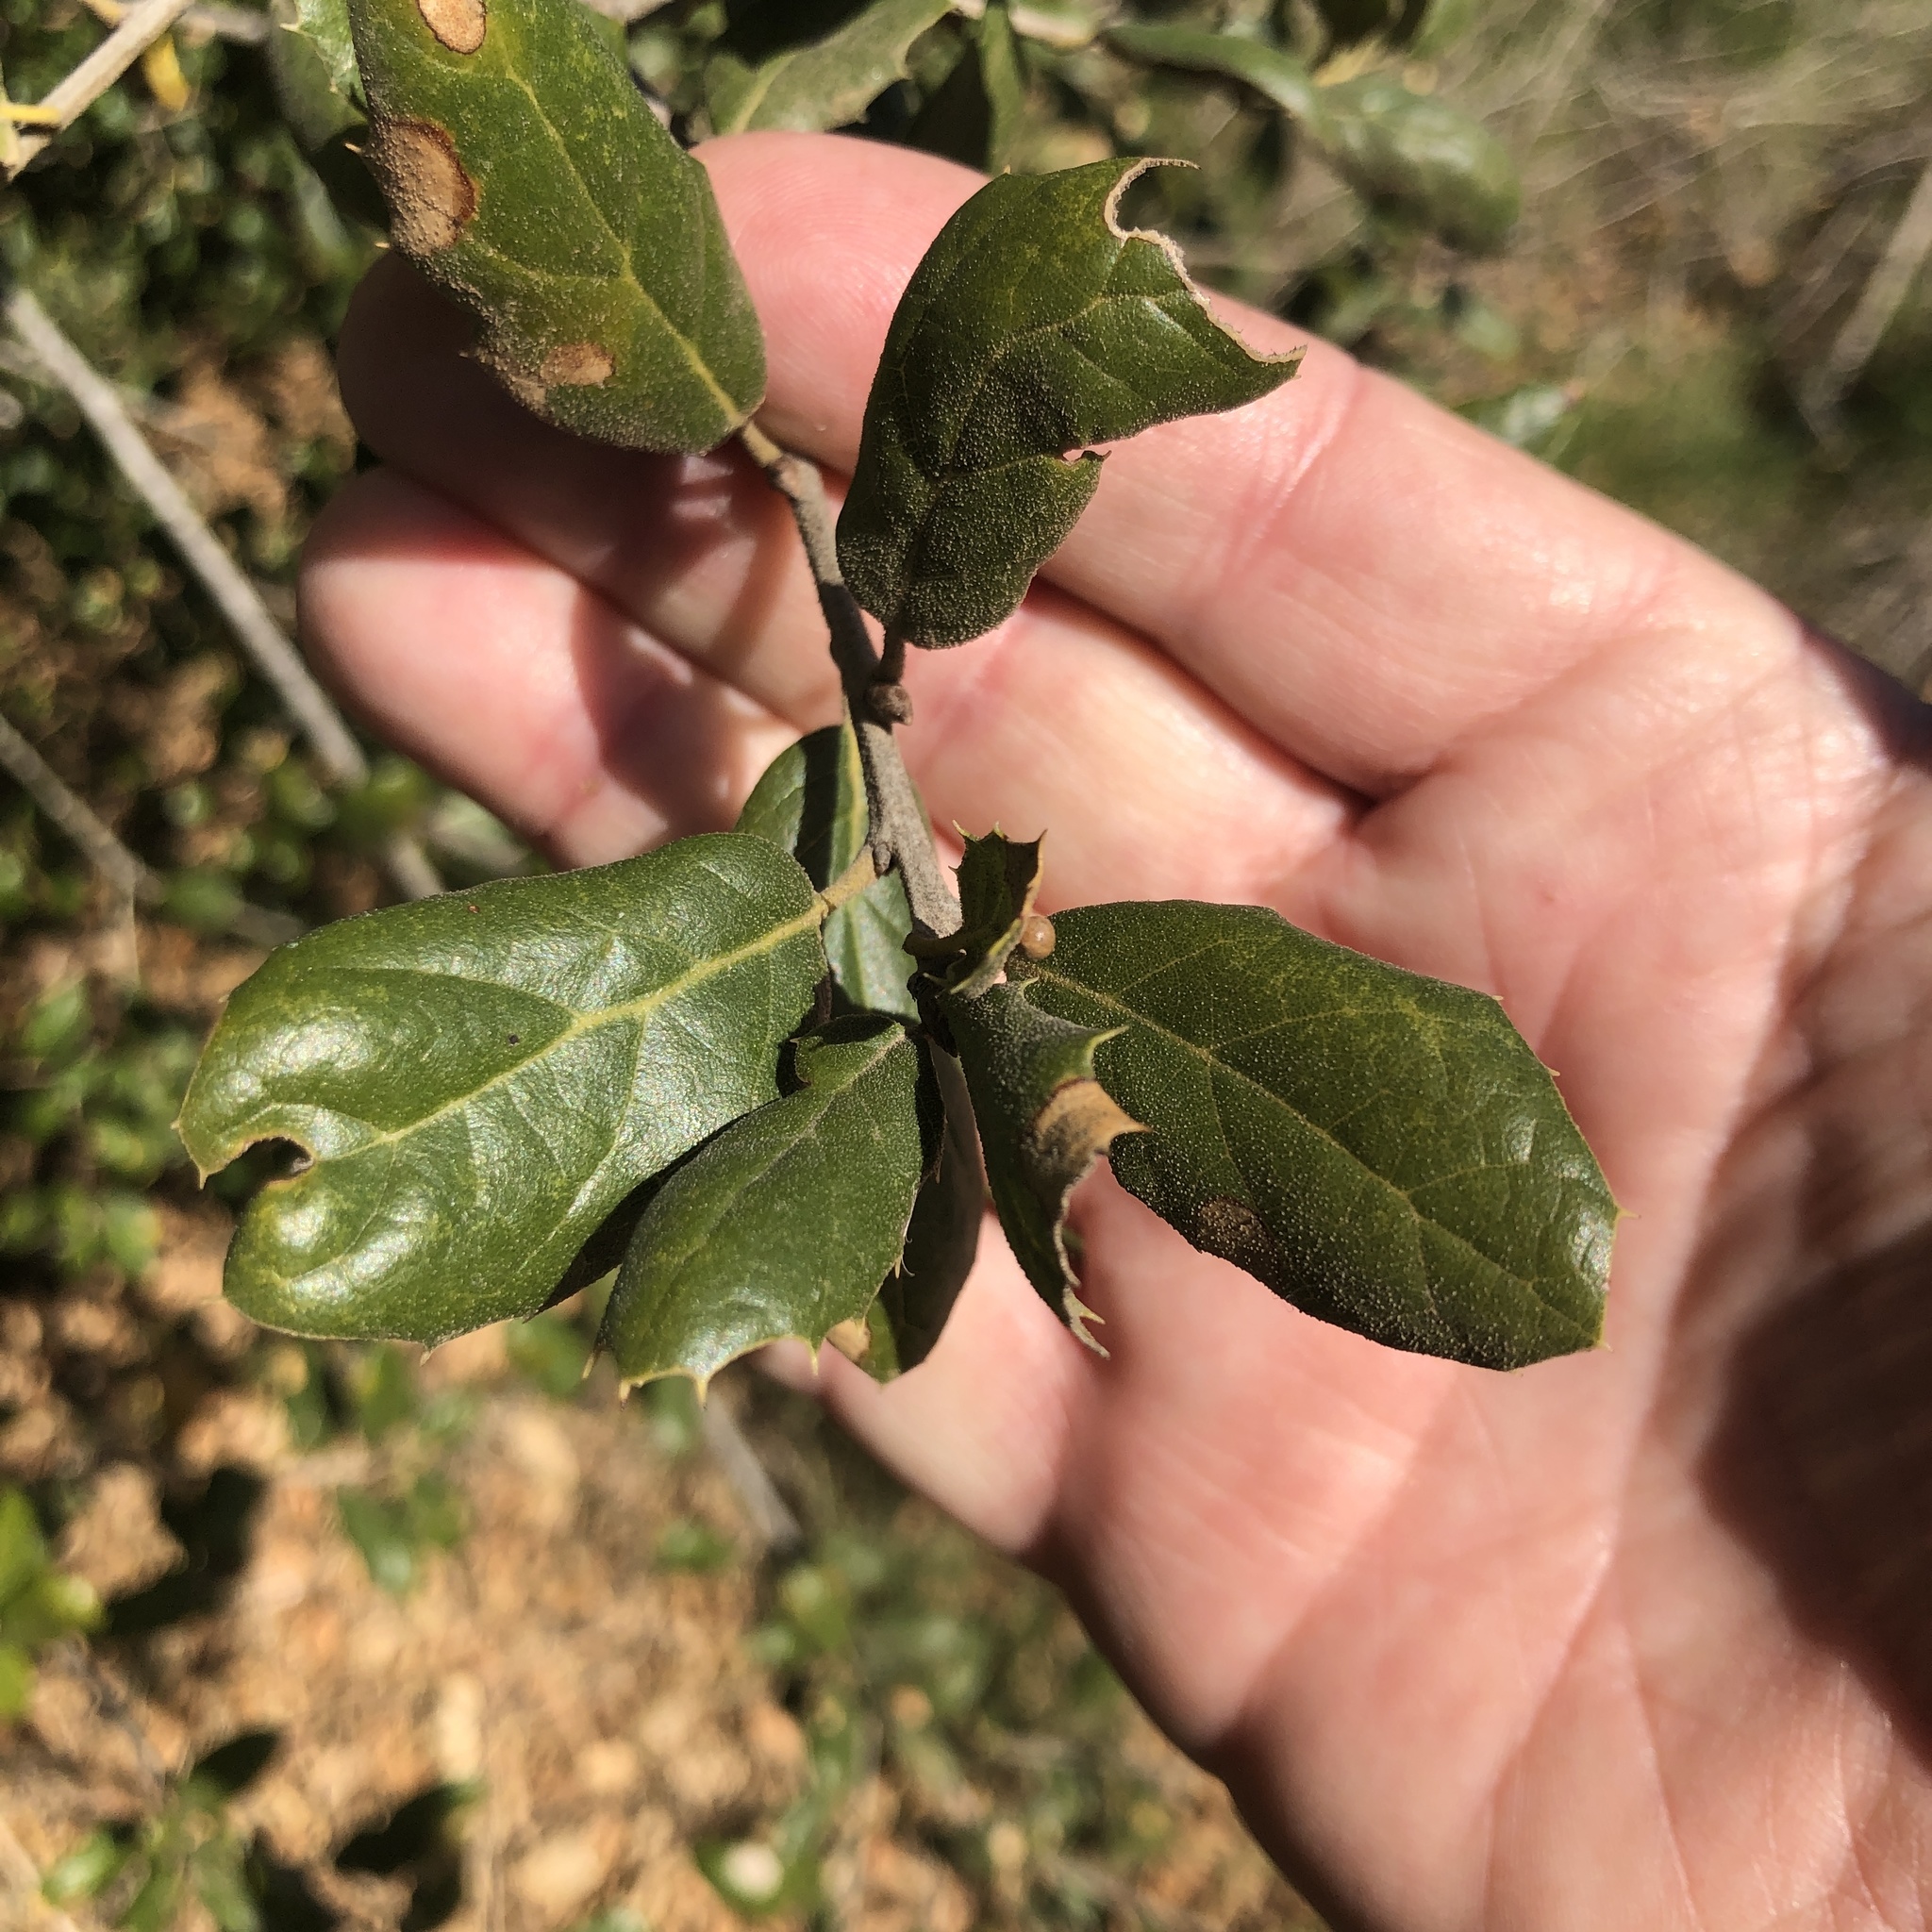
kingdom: Plantae
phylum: Tracheophyta
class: Magnoliopsida
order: Fagales
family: Fagaceae
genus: Quercus
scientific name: Quercus agrifolia
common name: California live oak
